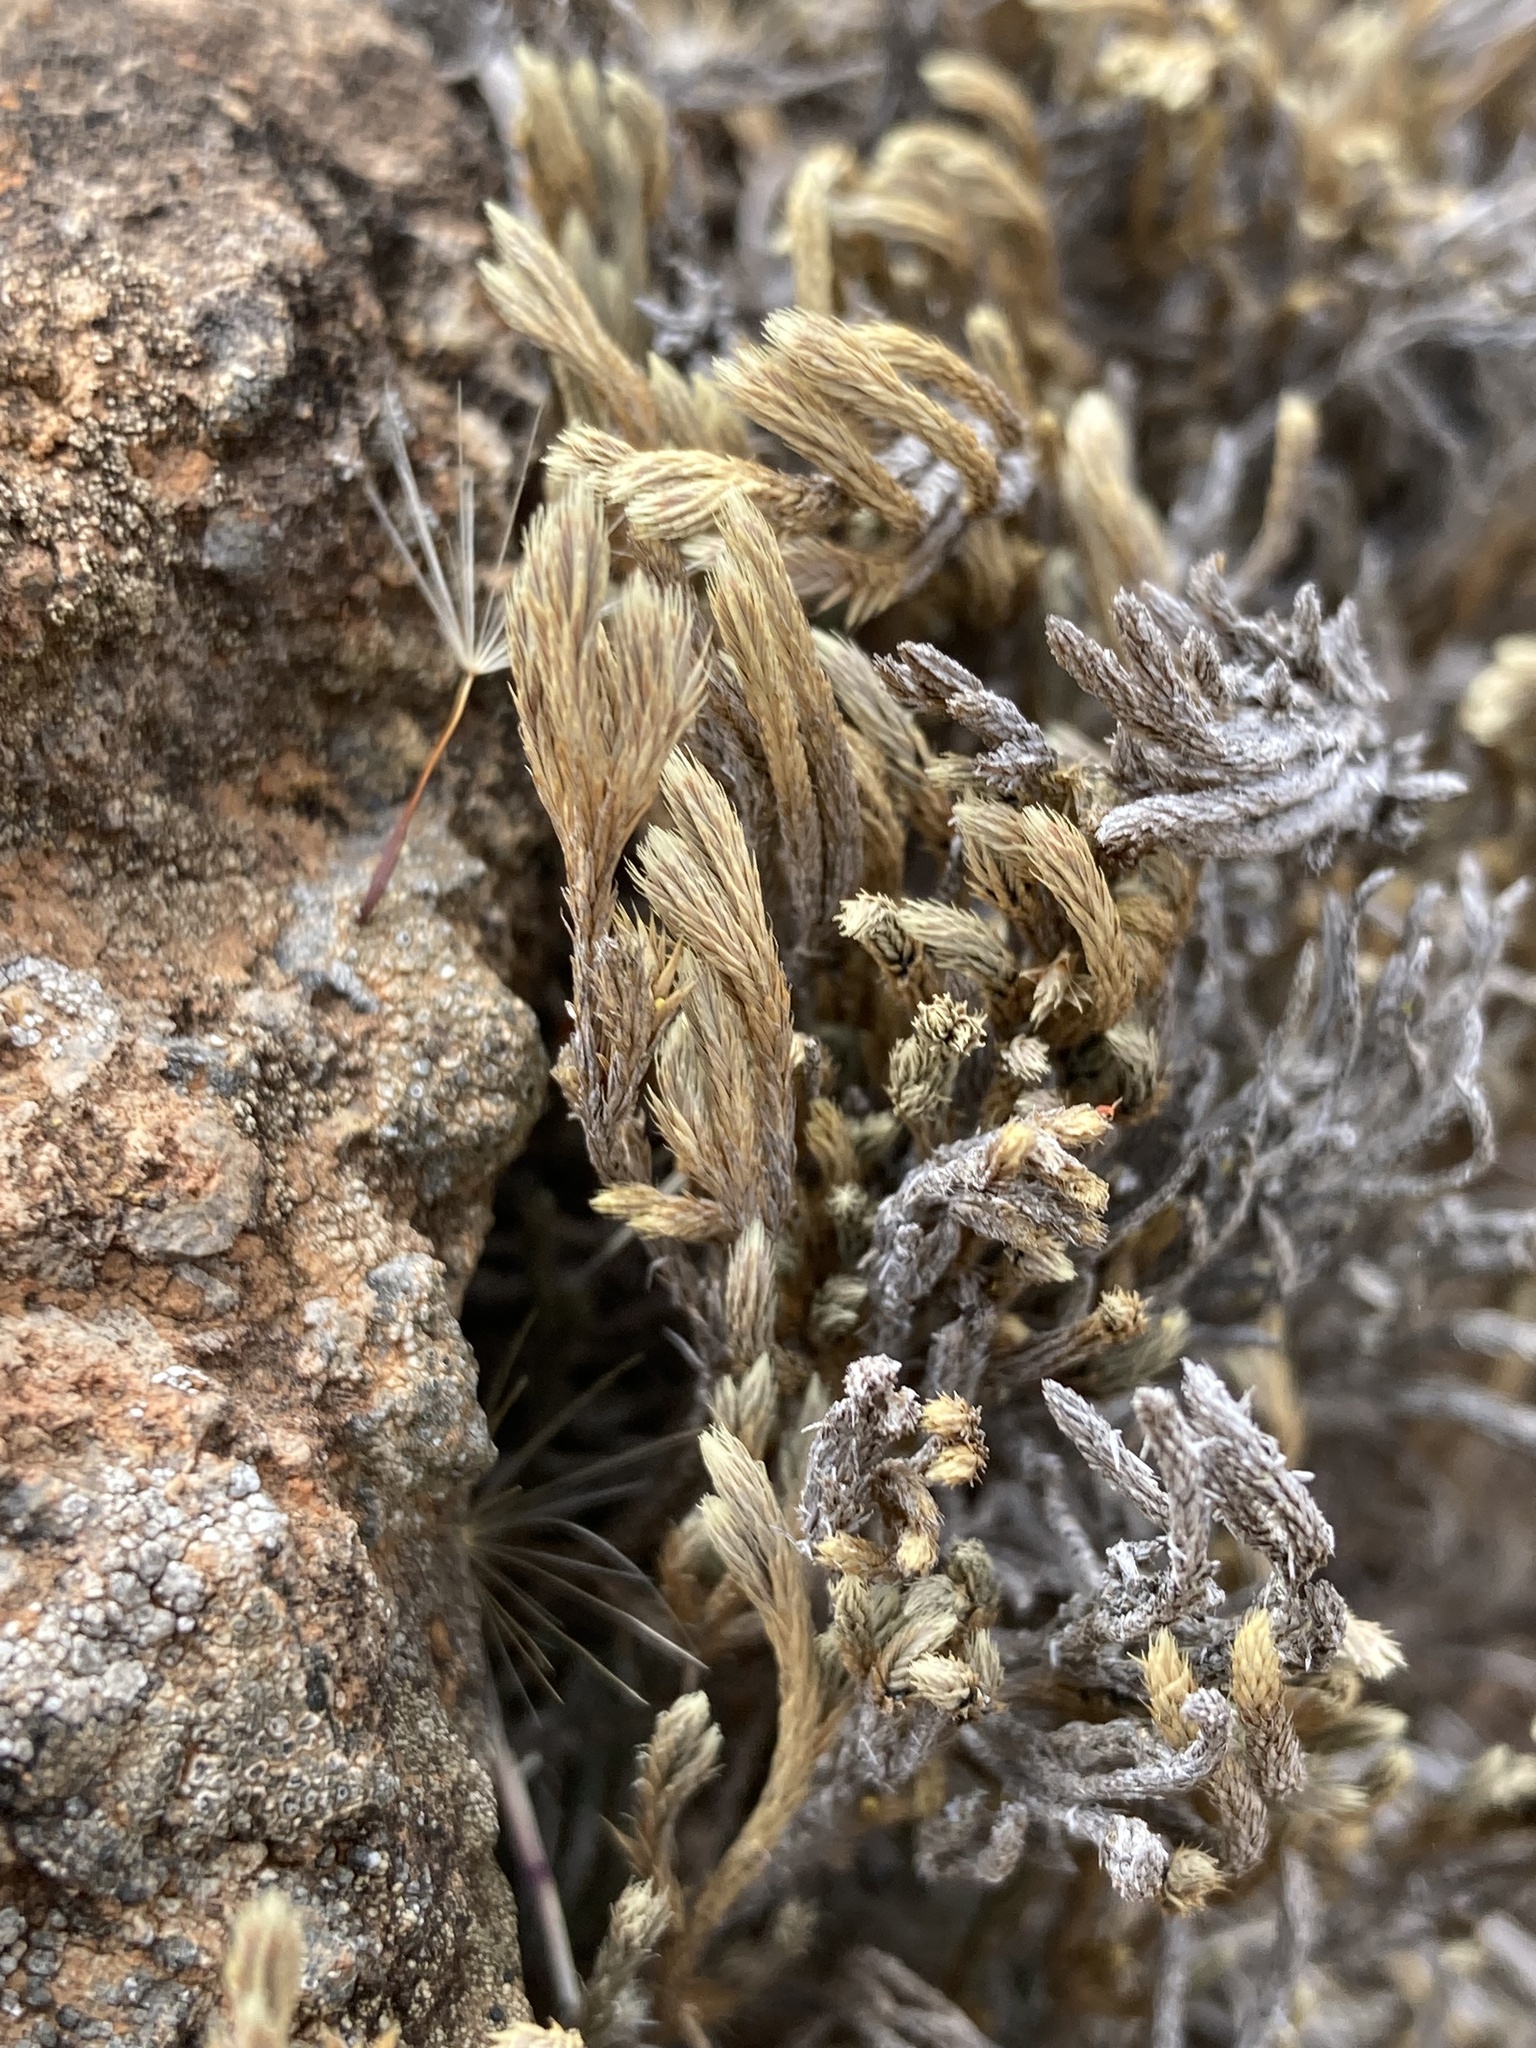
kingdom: Plantae
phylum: Tracheophyta
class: Lycopodiopsida
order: Selaginellales
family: Selaginellaceae
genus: Selaginella
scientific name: Selaginella bigelovii
